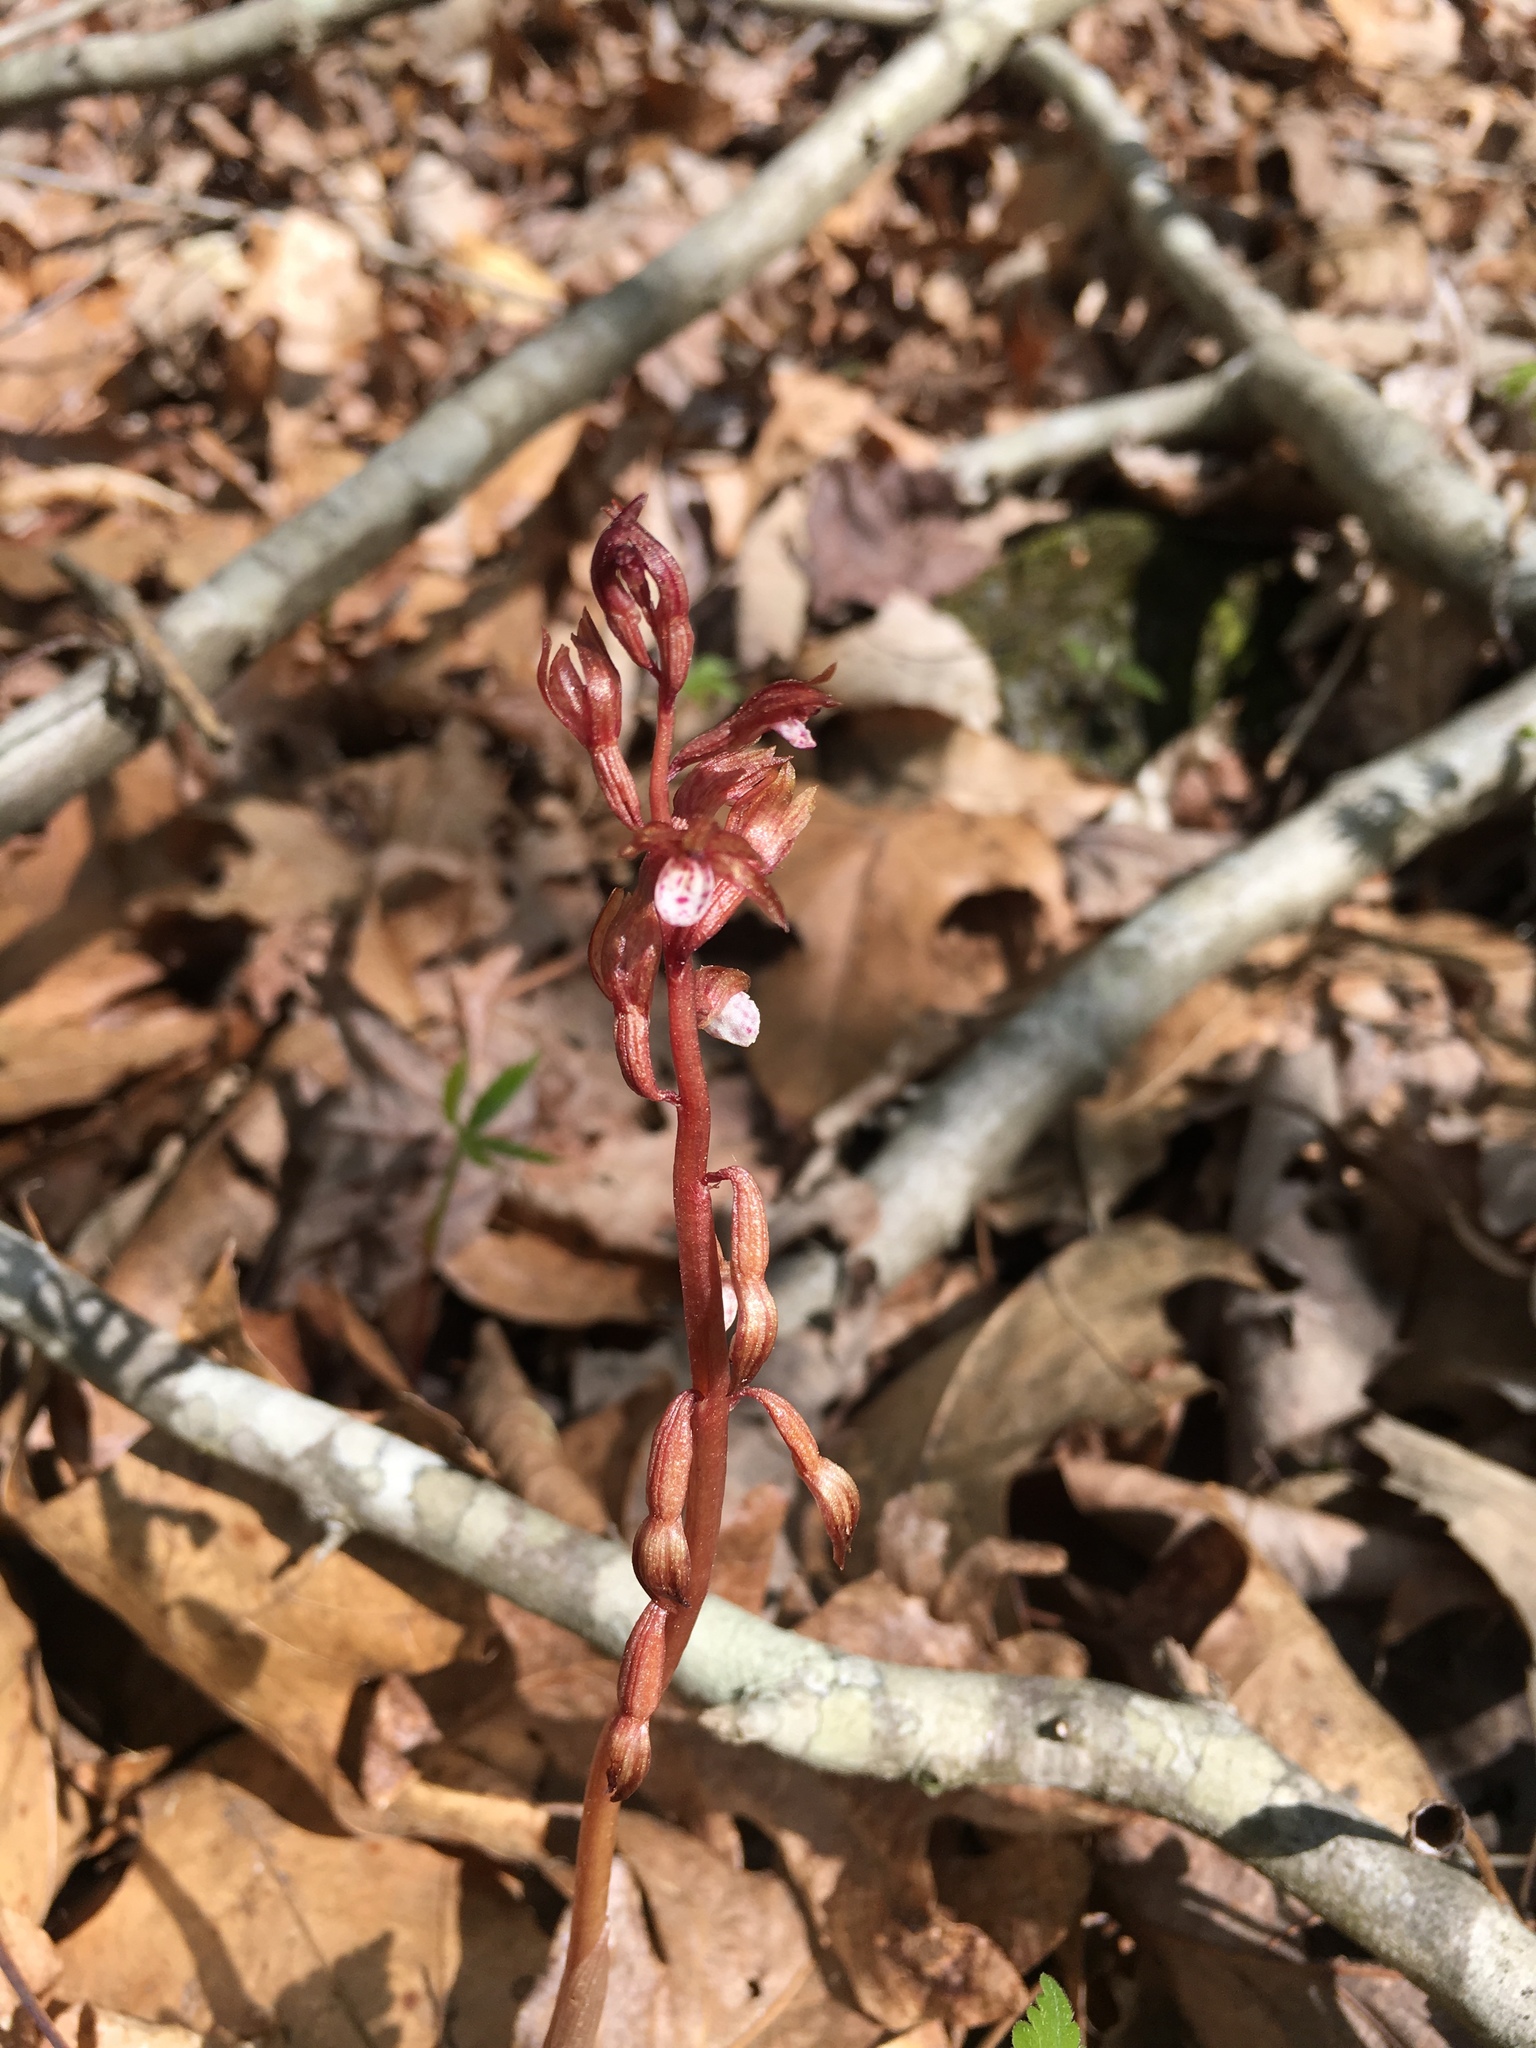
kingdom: Plantae
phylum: Tracheophyta
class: Liliopsida
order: Asparagales
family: Orchidaceae
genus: Corallorhiza
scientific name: Corallorhiza wisteriana
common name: Spring coralroot
